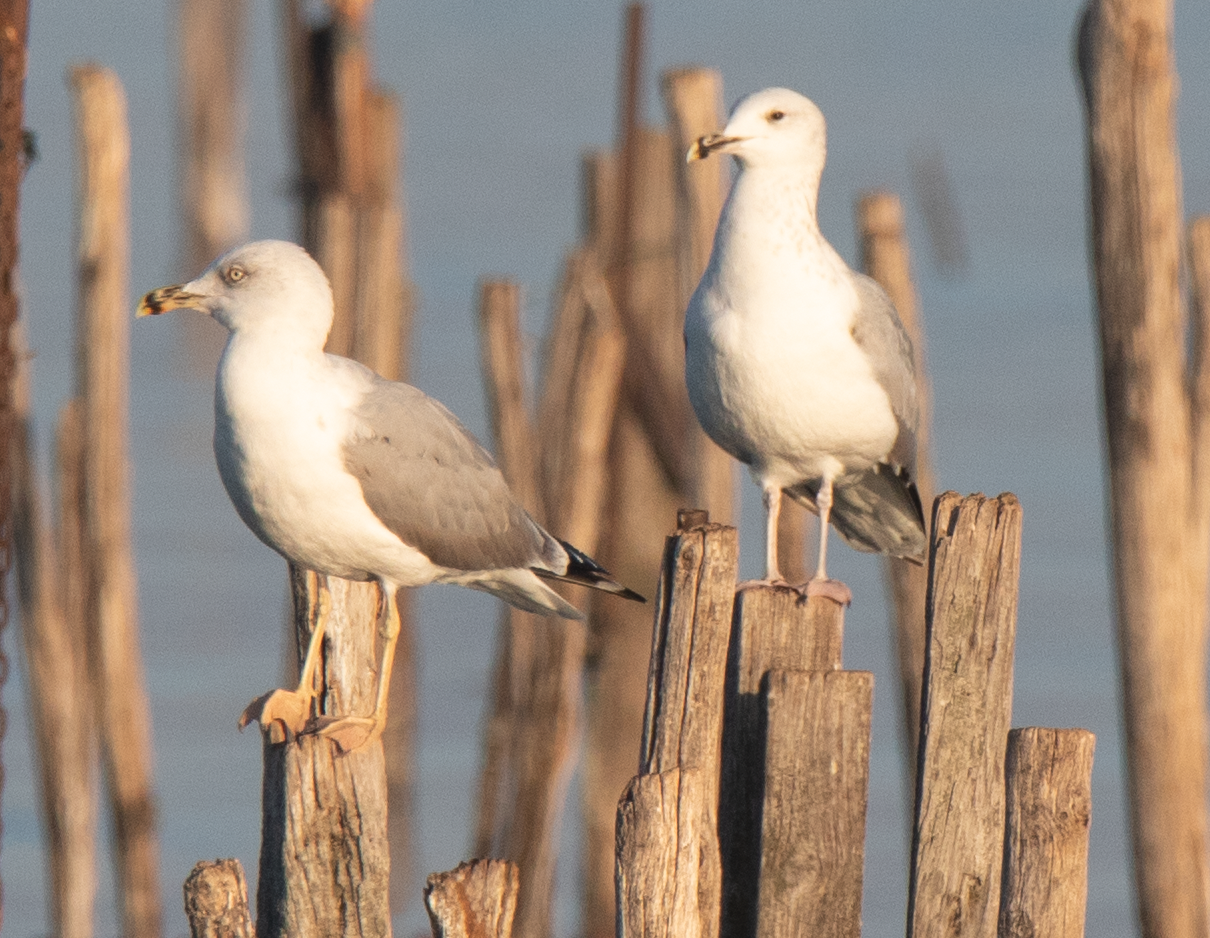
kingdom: Animalia
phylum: Chordata
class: Aves
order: Charadriiformes
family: Laridae
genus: Larus
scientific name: Larus michahellis
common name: Yellow-legged gull
